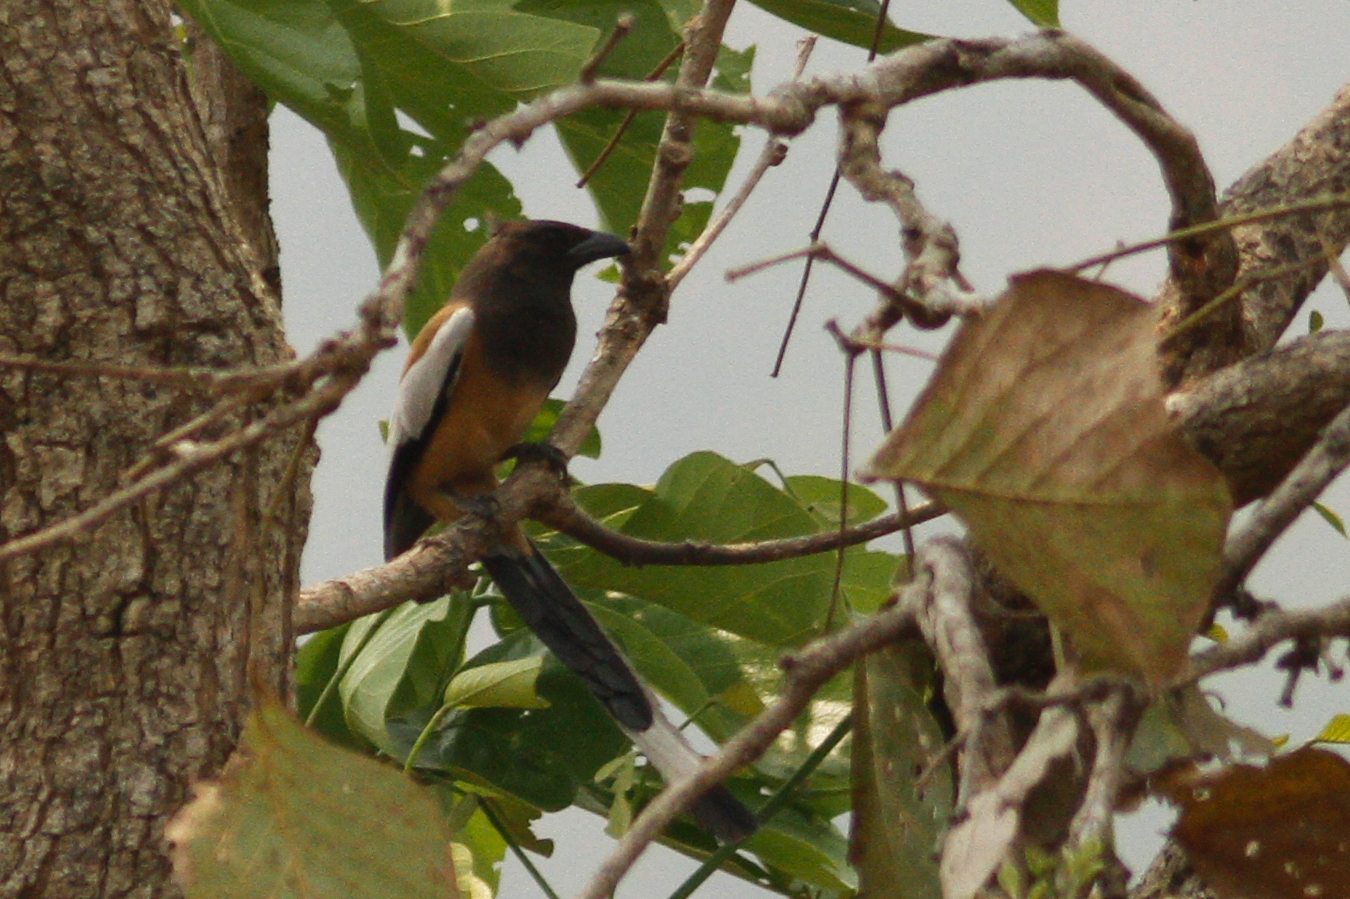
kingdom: Animalia
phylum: Chordata
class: Aves
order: Passeriformes
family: Corvidae
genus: Dendrocitta
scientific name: Dendrocitta vagabunda
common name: Rufous treepie
